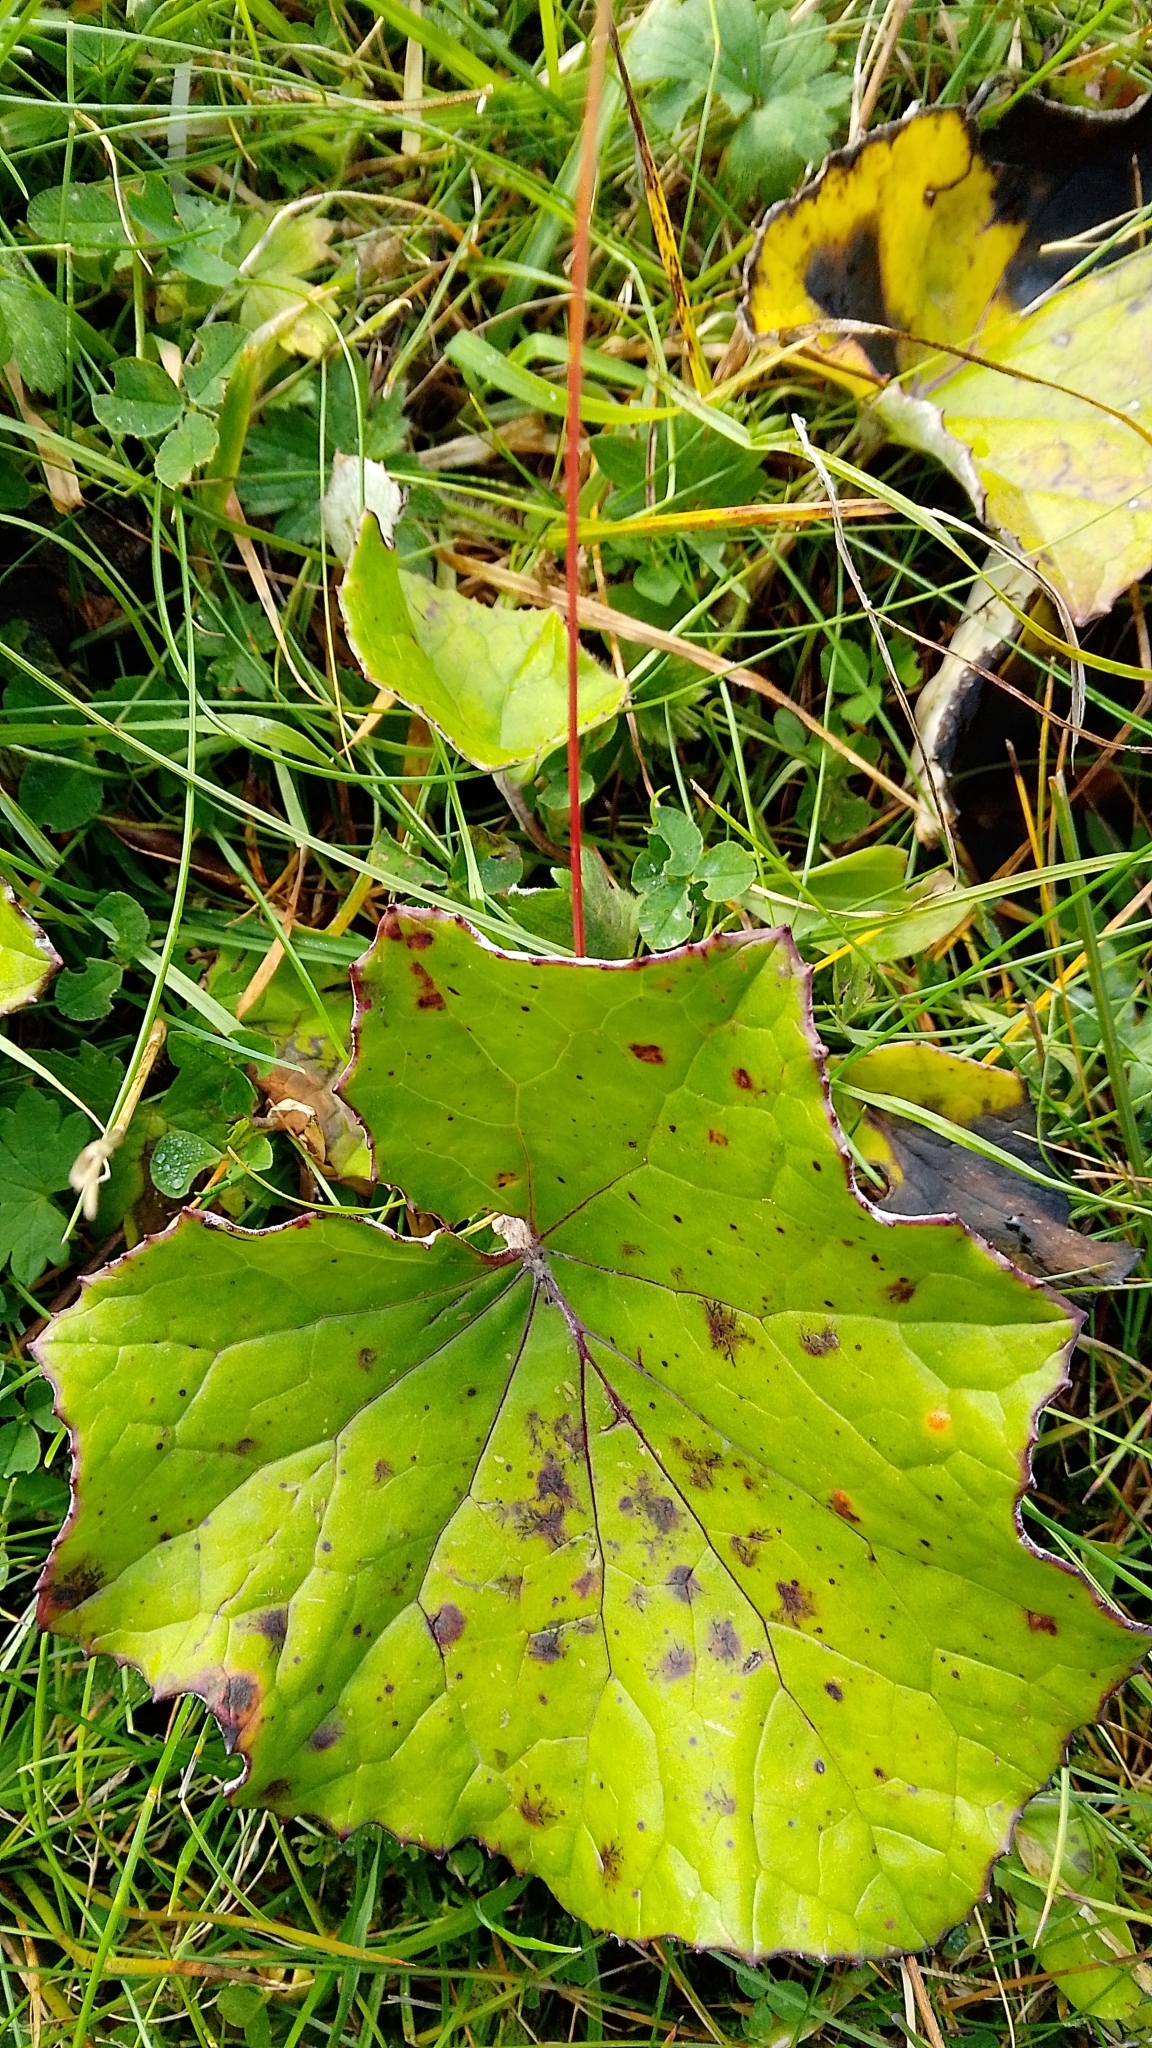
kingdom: Plantae
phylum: Tracheophyta
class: Magnoliopsida
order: Asterales
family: Asteraceae
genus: Tussilago
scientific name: Tussilago farfara
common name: Coltsfoot
